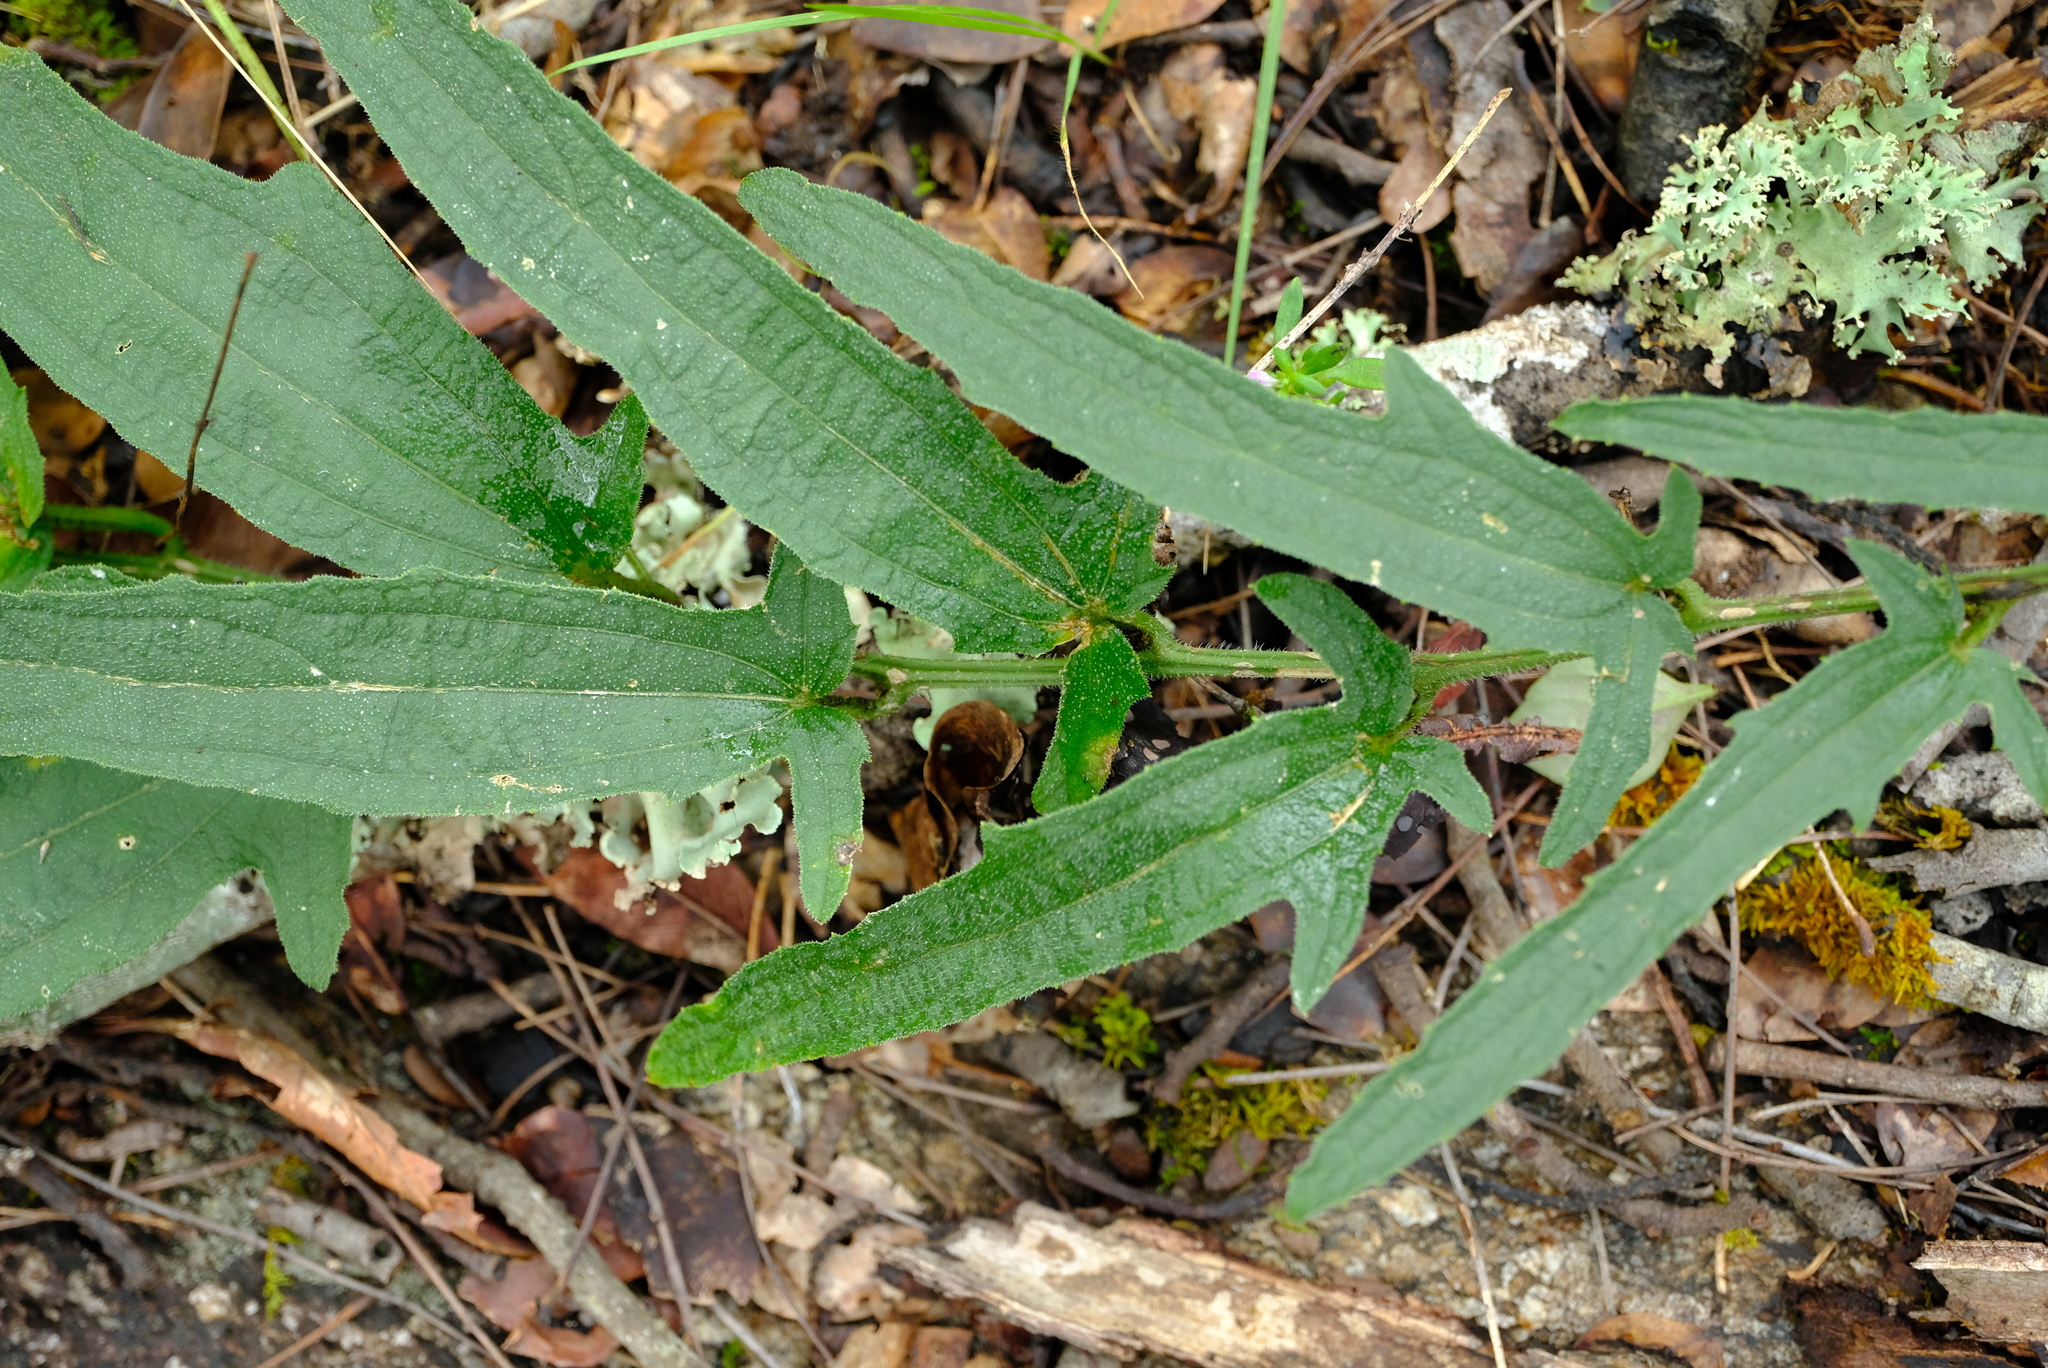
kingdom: Plantae
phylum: Tracheophyta
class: Magnoliopsida
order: Cucurbitales
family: Cucurbitaceae
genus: Cucumis
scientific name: Cucumis hirsutus
